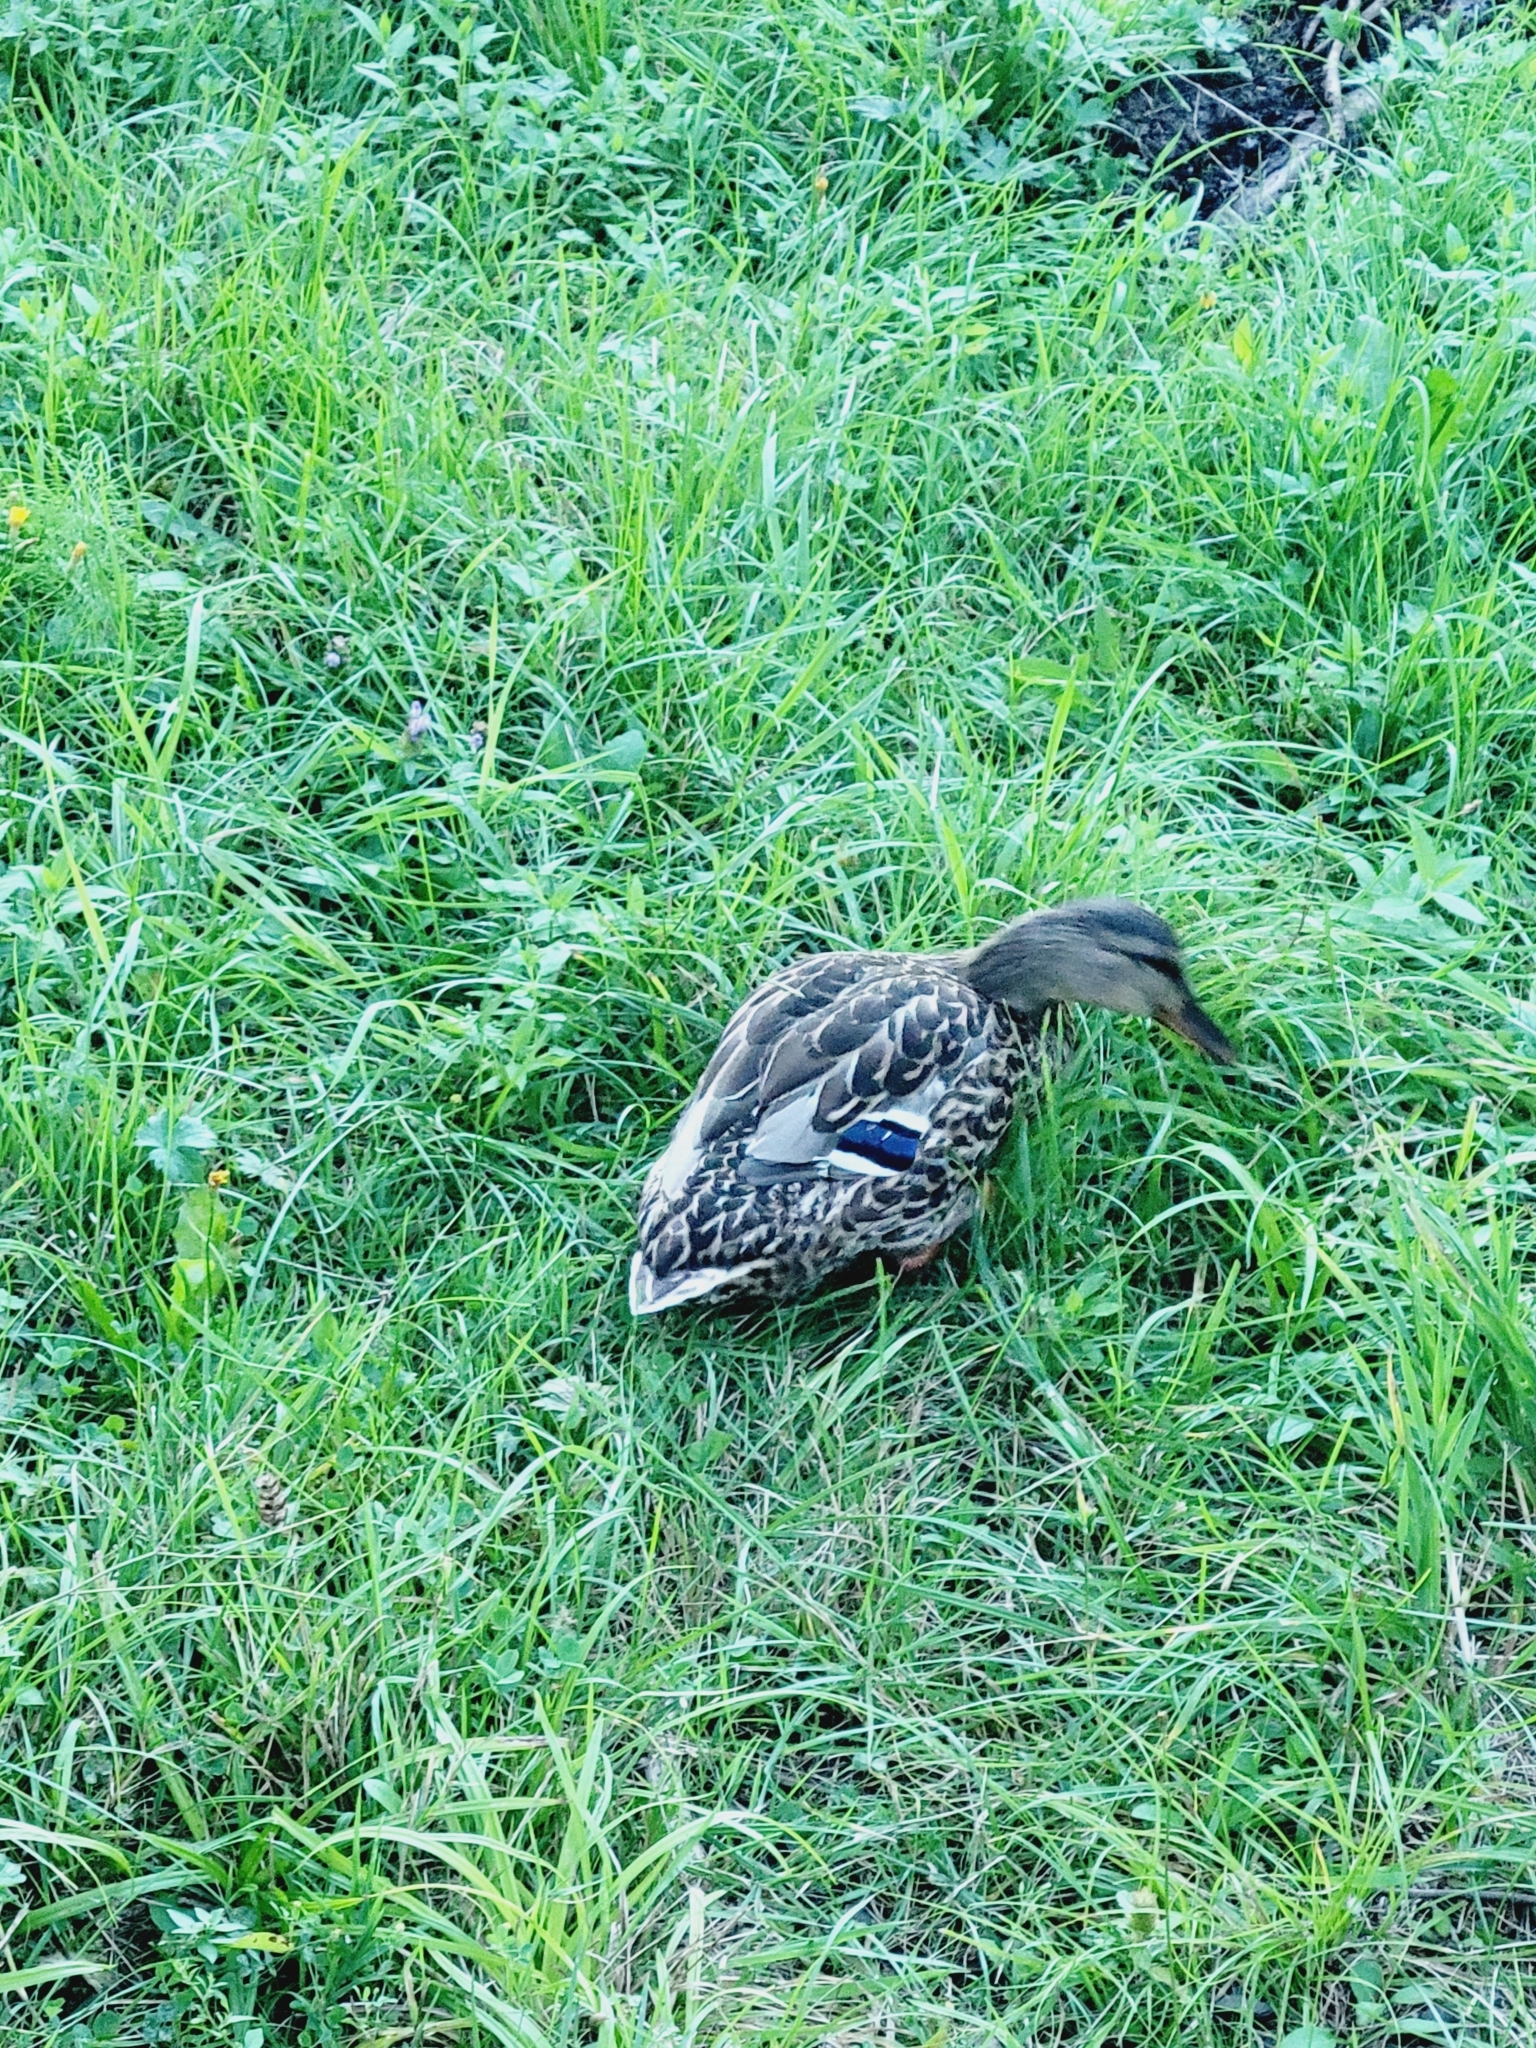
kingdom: Animalia
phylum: Chordata
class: Aves
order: Anseriformes
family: Anatidae
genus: Anas
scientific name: Anas platyrhynchos
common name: Mallard
